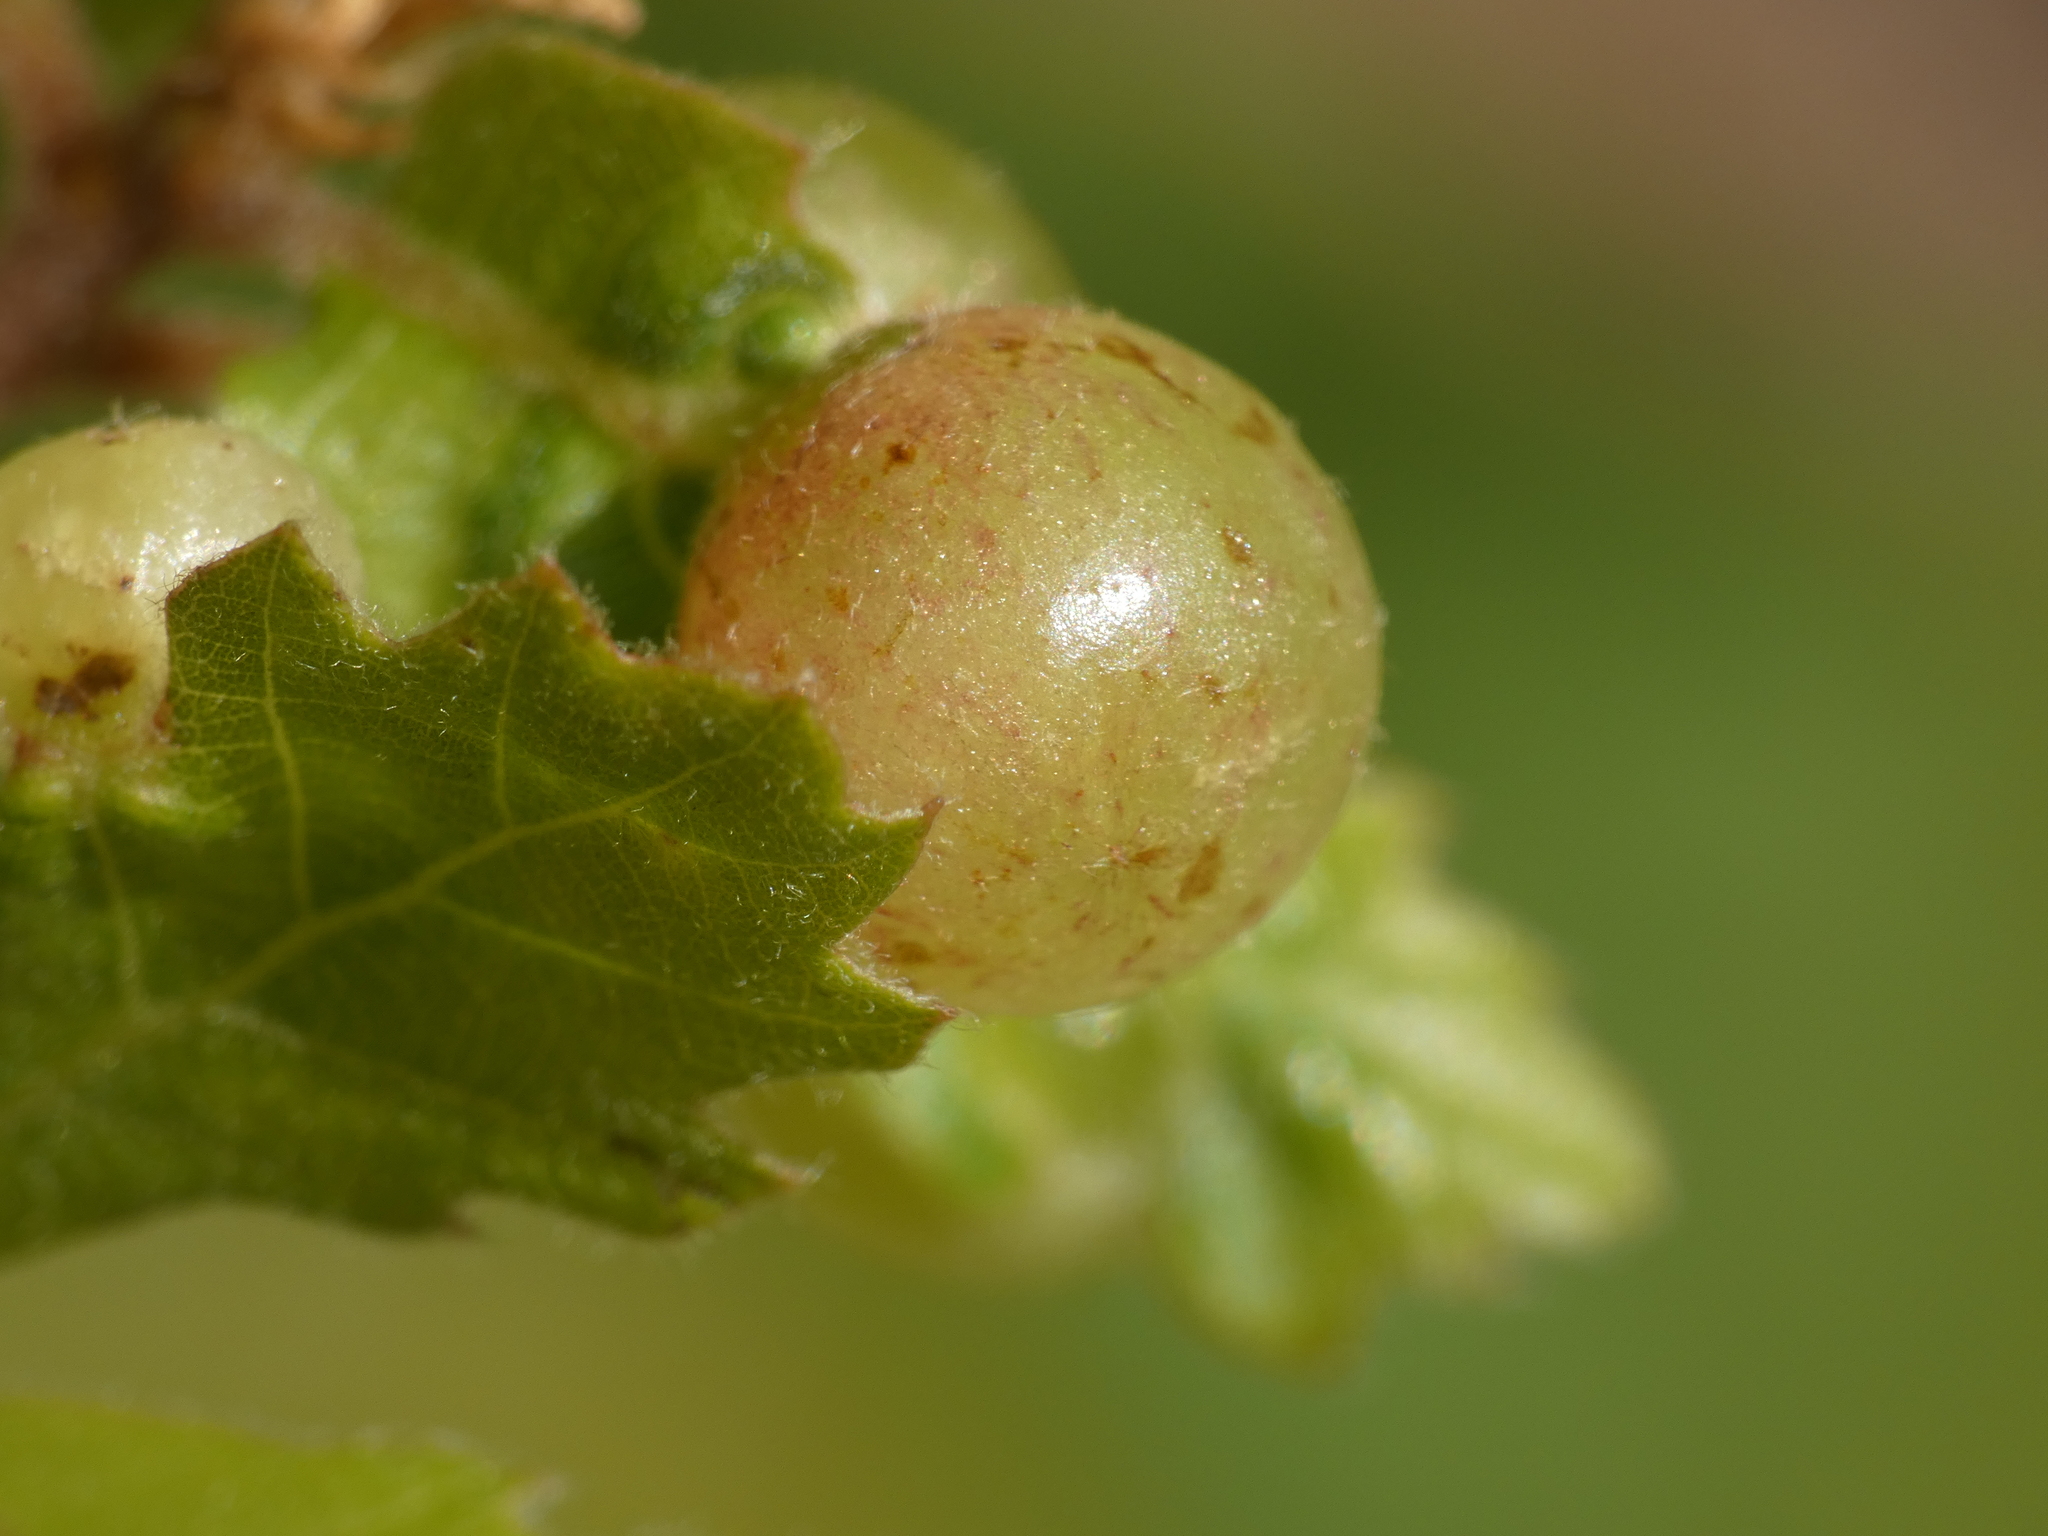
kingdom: Animalia
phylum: Arthropoda
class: Insecta
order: Hymenoptera
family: Cynipidae
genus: Neuroterus
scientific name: Neuroterus quercusbaccarum
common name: Common spangle gall
